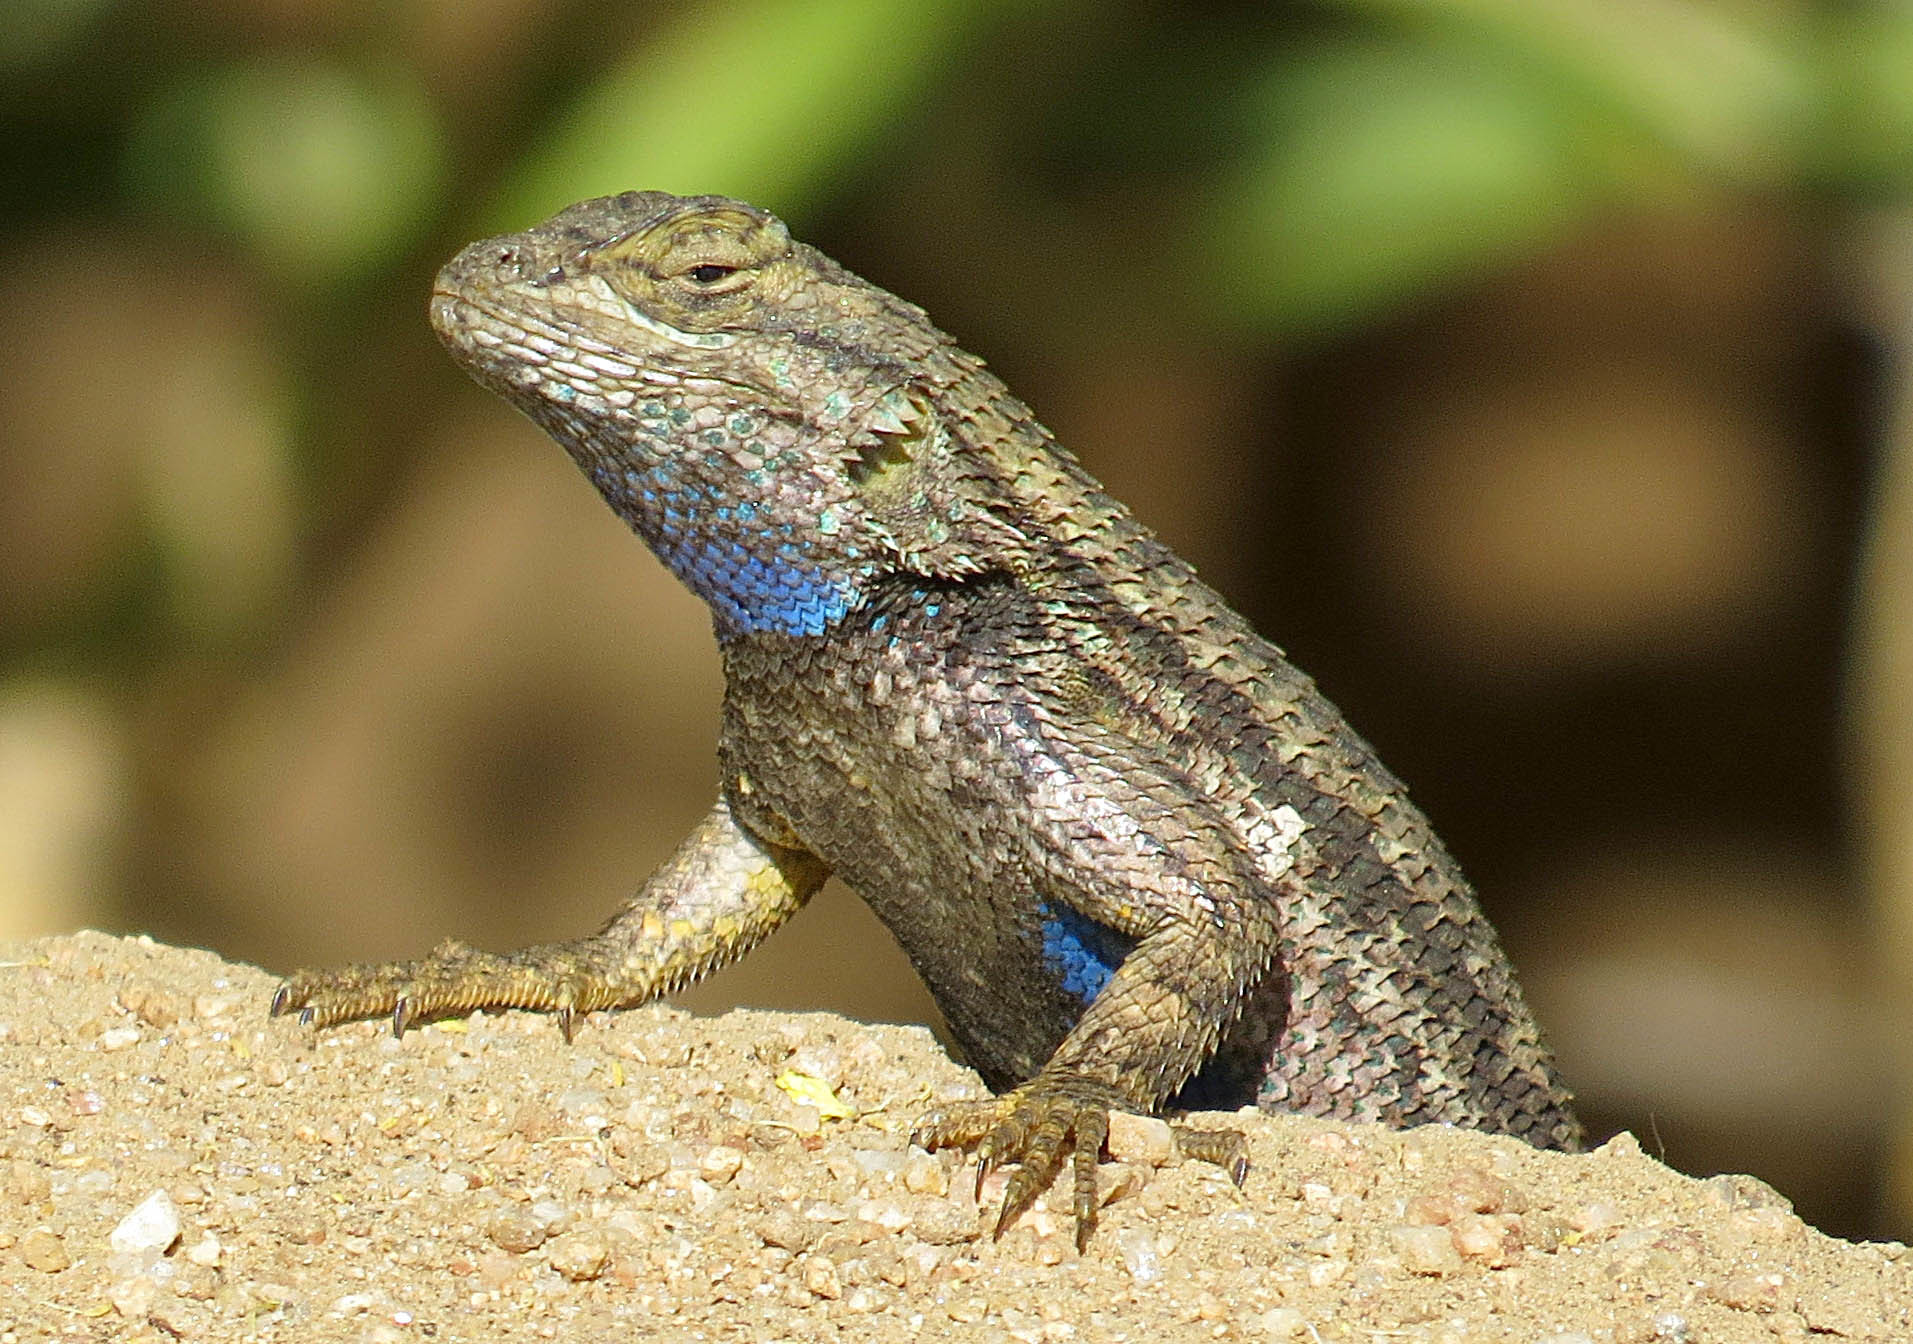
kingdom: Animalia
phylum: Chordata
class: Squamata
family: Phrynosomatidae
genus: Sceloporus
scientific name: Sceloporus occidentalis
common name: Western fence lizard
